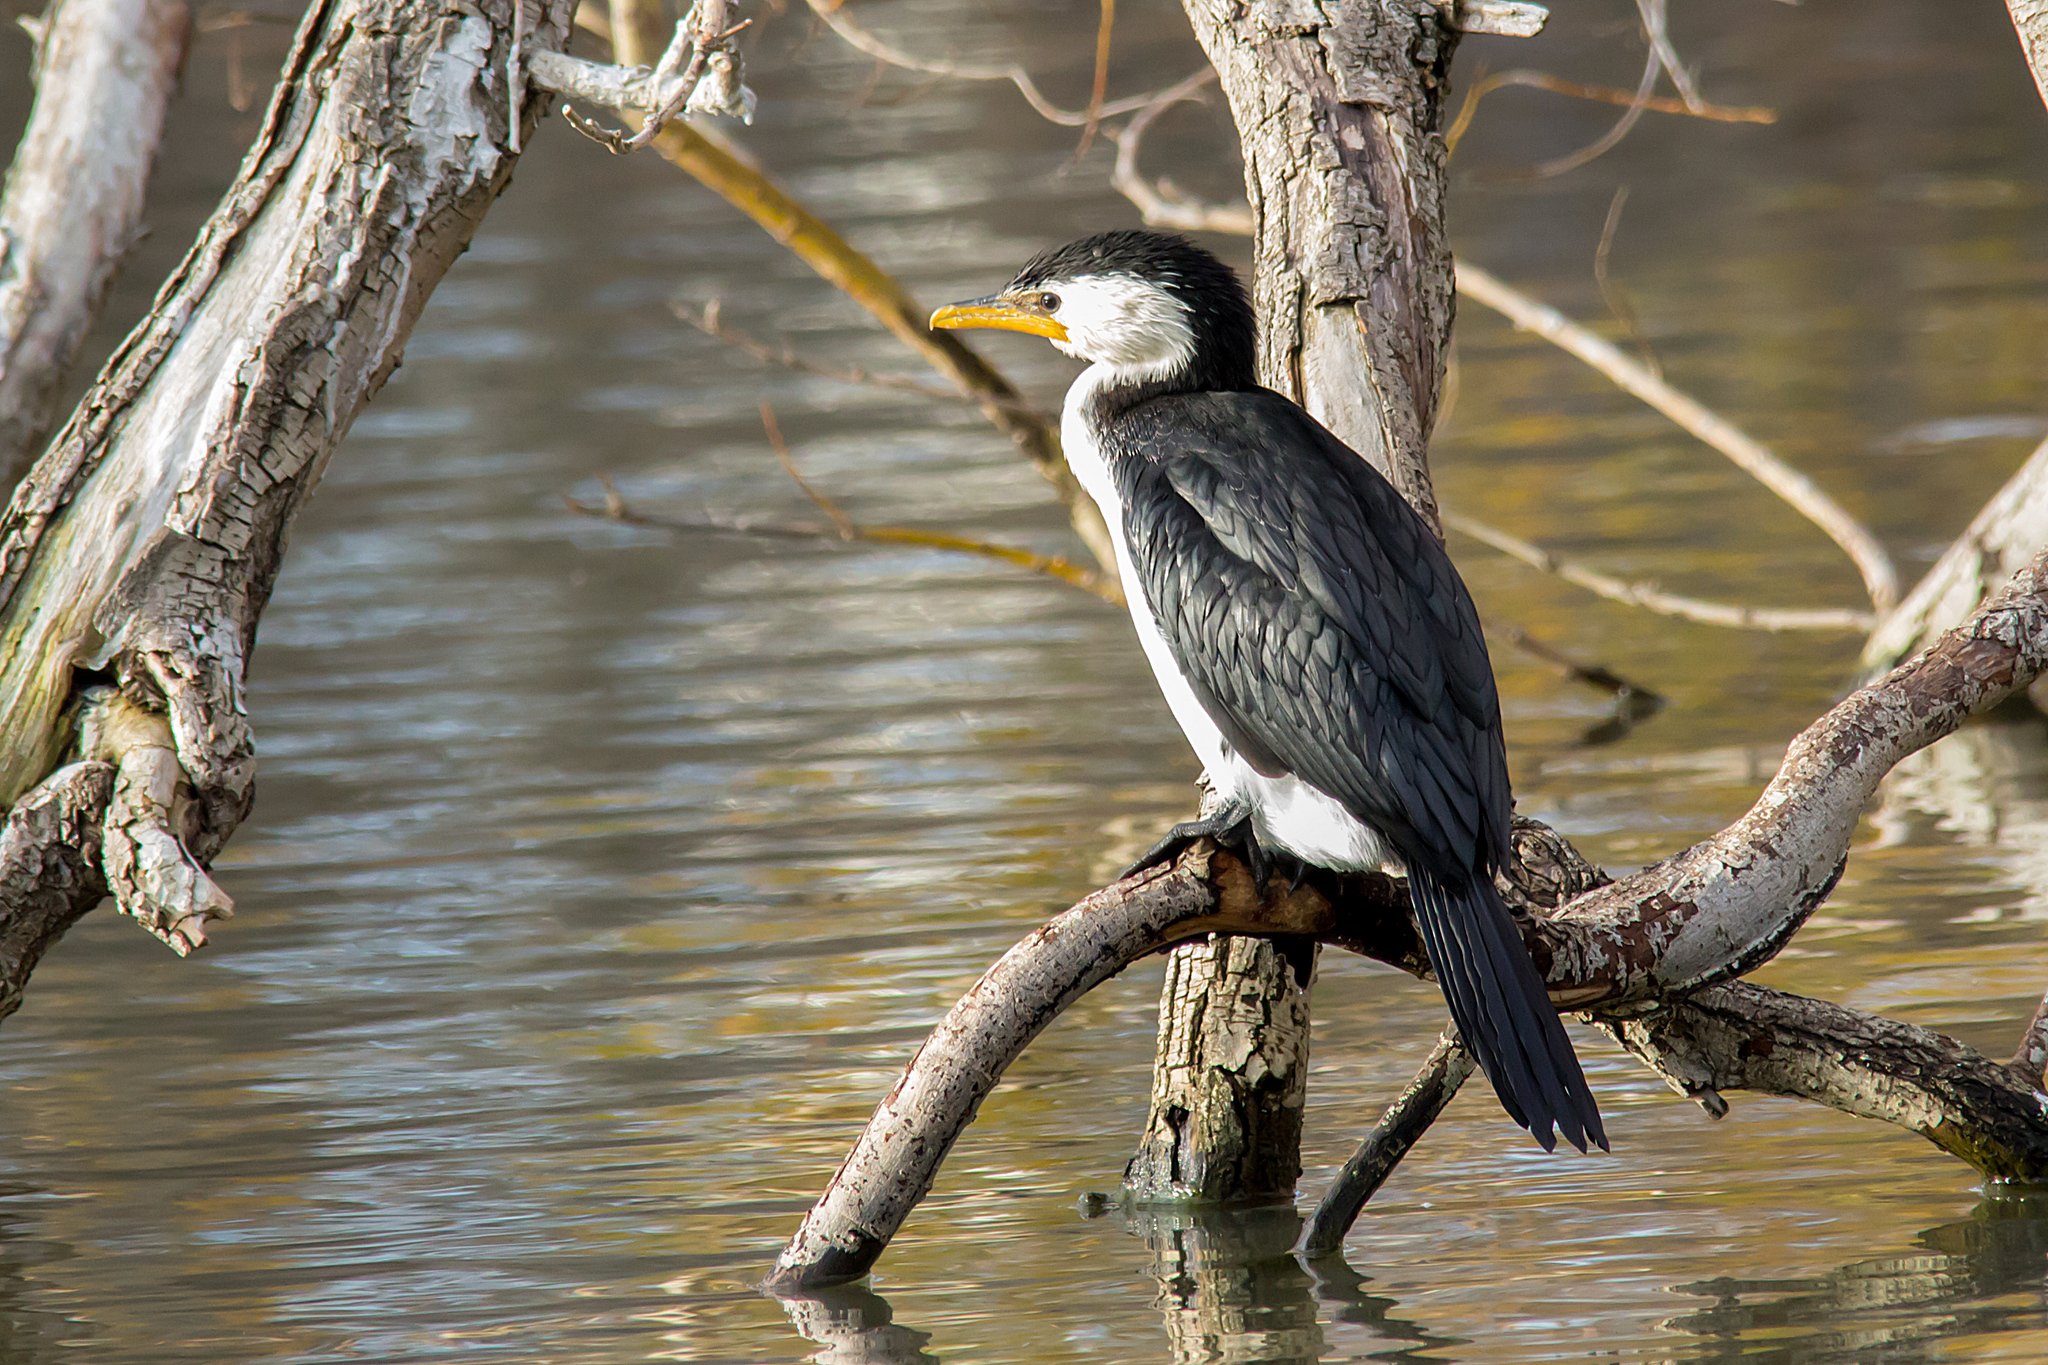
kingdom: Animalia
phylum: Chordata
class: Aves
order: Suliformes
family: Phalacrocoracidae
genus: Microcarbo
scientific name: Microcarbo melanoleucos
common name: Little pied cormorant
